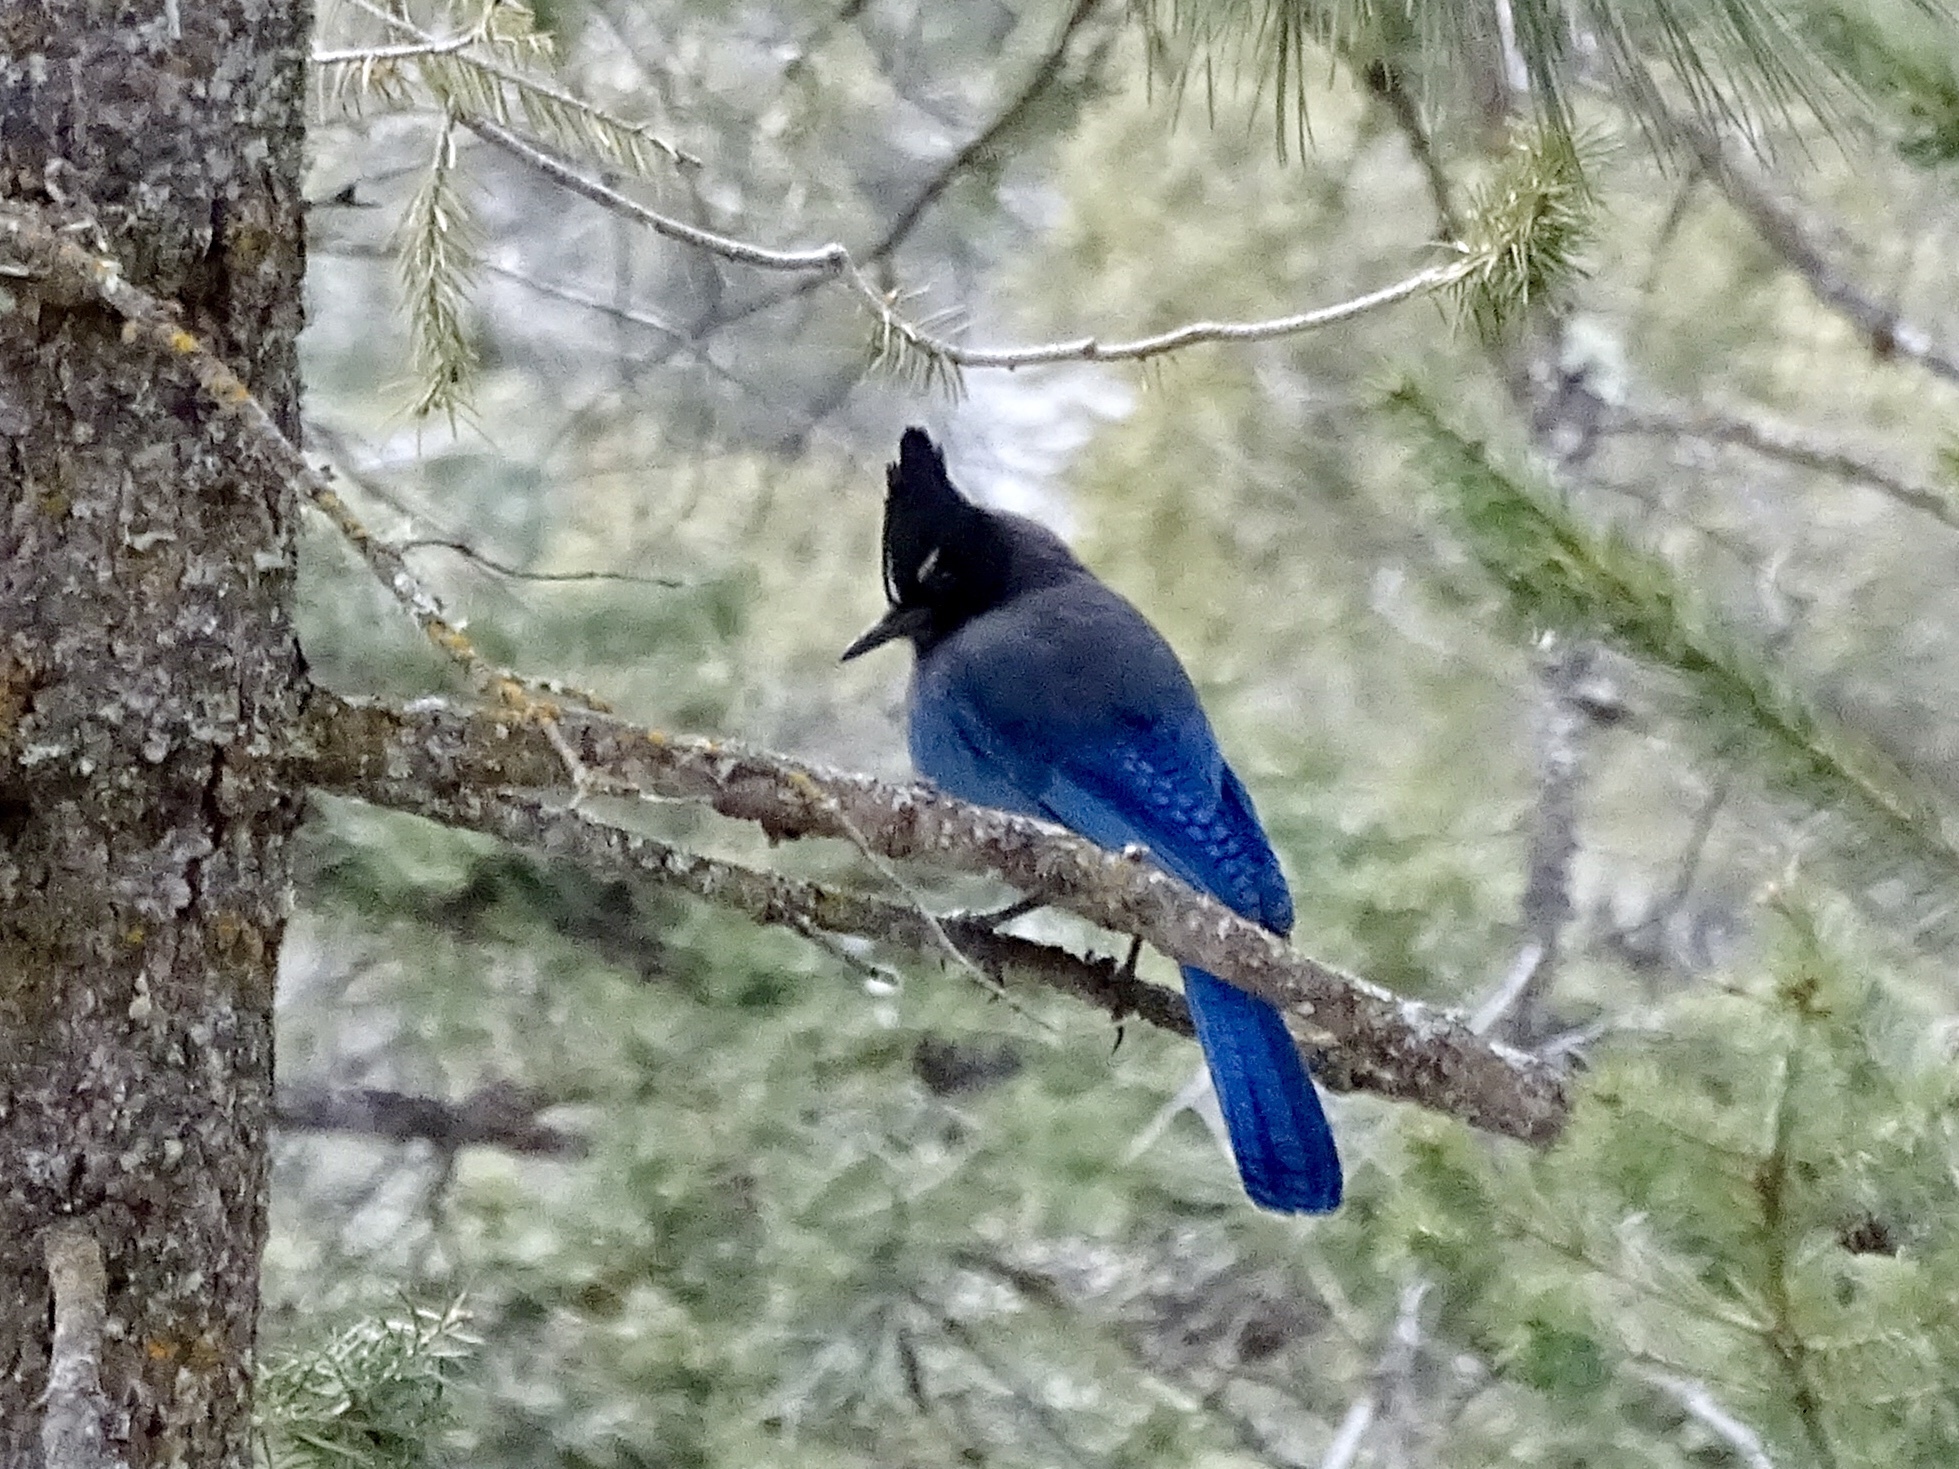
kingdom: Animalia
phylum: Chordata
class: Aves
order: Passeriformes
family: Corvidae
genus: Cyanocitta
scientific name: Cyanocitta stelleri
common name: Steller's jay
